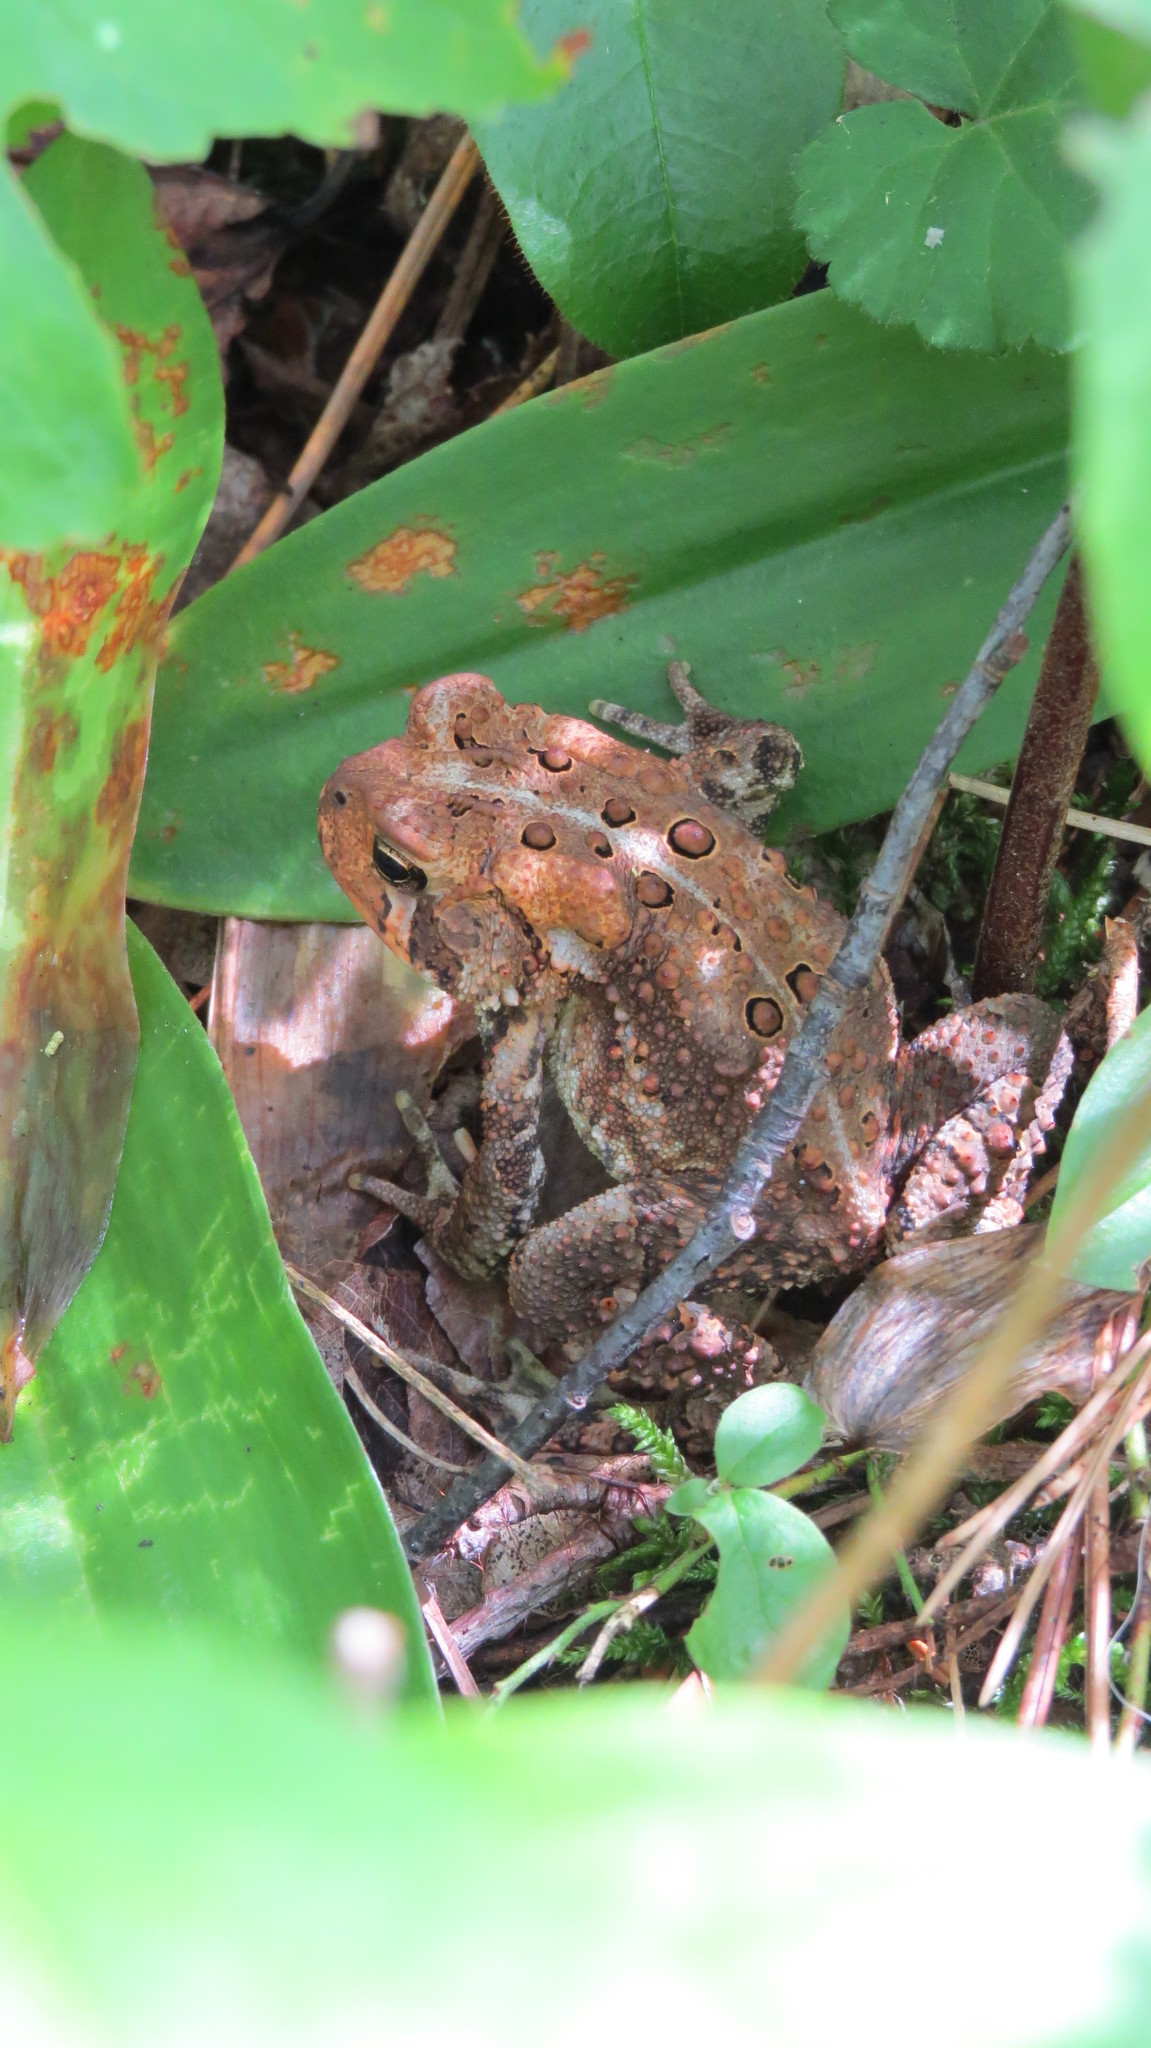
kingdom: Animalia
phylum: Chordata
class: Amphibia
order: Anura
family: Bufonidae
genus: Anaxyrus
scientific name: Anaxyrus americanus
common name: American toad
